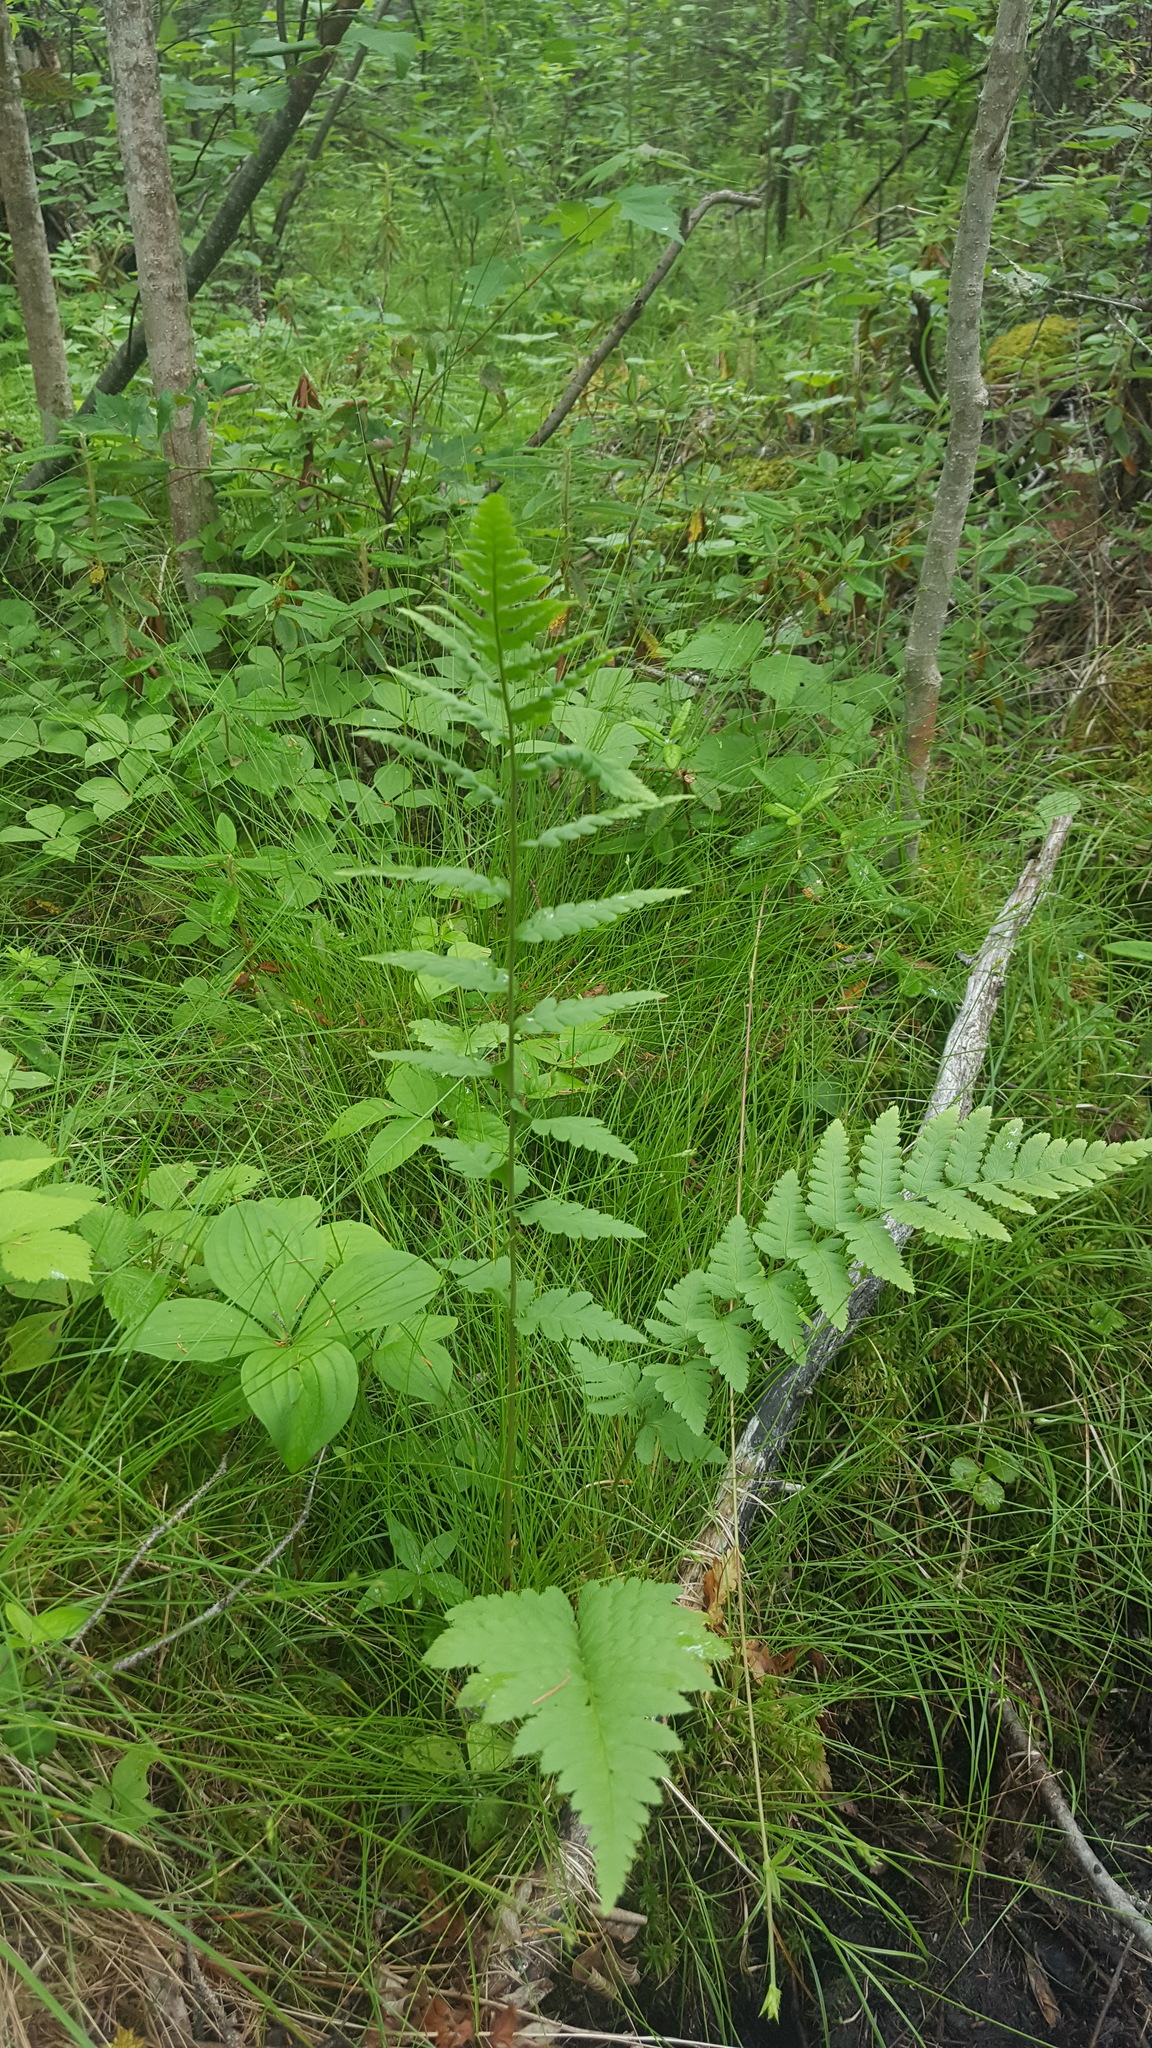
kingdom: Plantae
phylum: Tracheophyta
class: Polypodiopsida
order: Polypodiales
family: Dryopteridaceae
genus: Dryopteris
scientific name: Dryopteris cristata
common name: Crested wood fern
